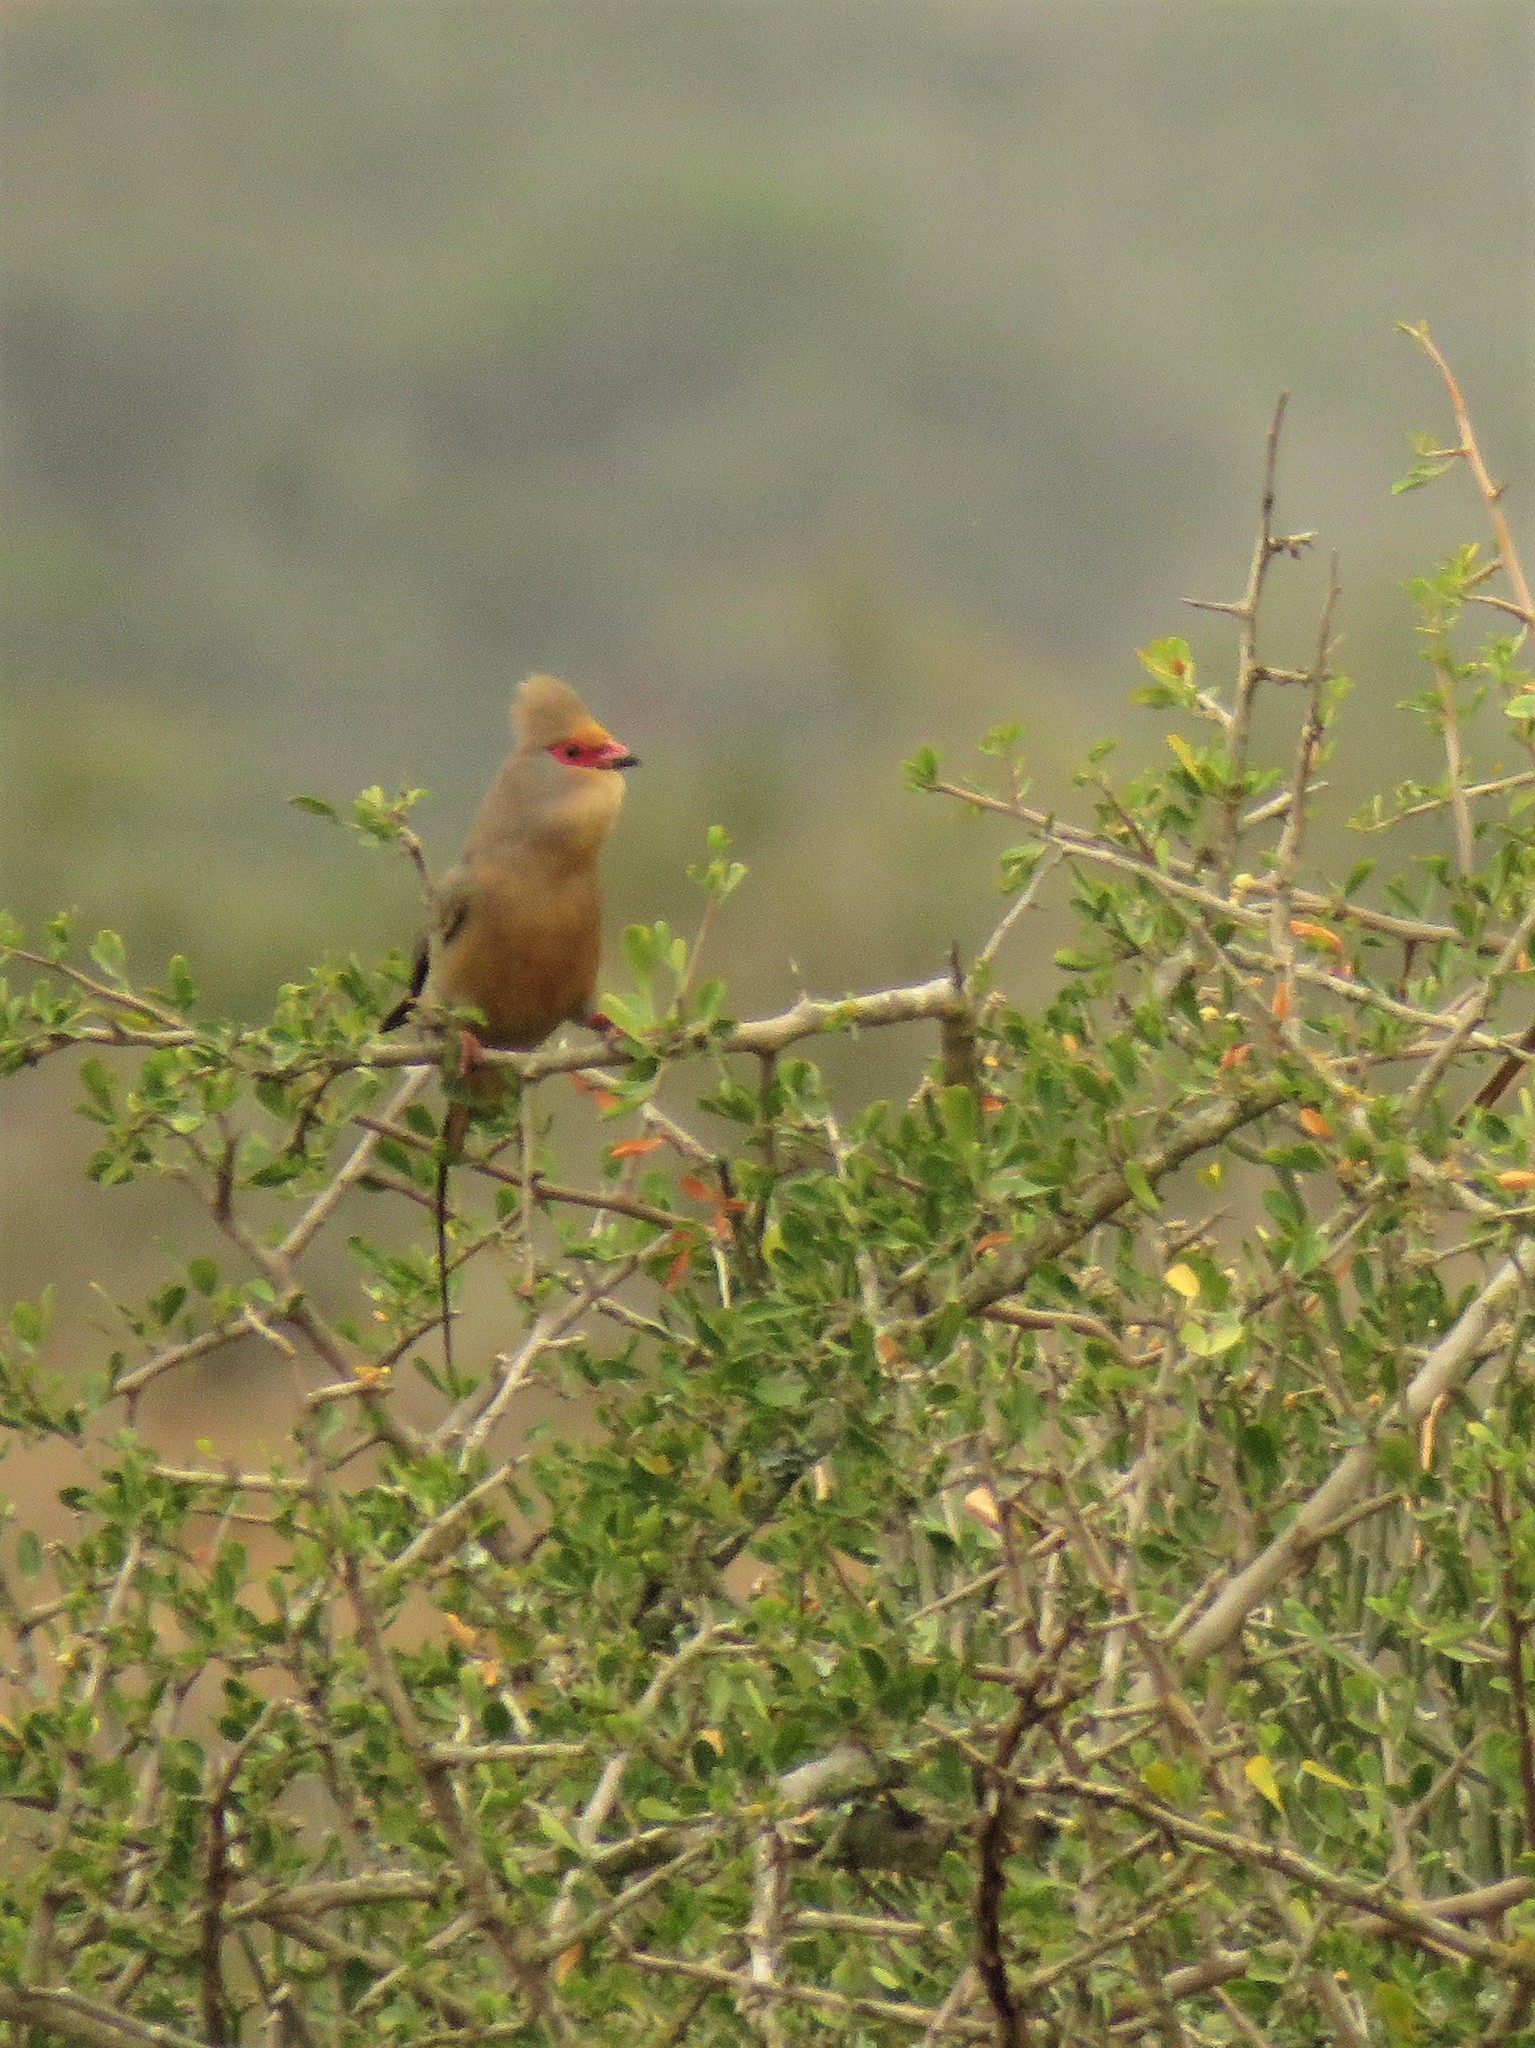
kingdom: Animalia
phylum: Chordata
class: Aves
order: Coliiformes
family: Coliidae
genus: Urocolius
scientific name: Urocolius indicus
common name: Red-faced mousebird
